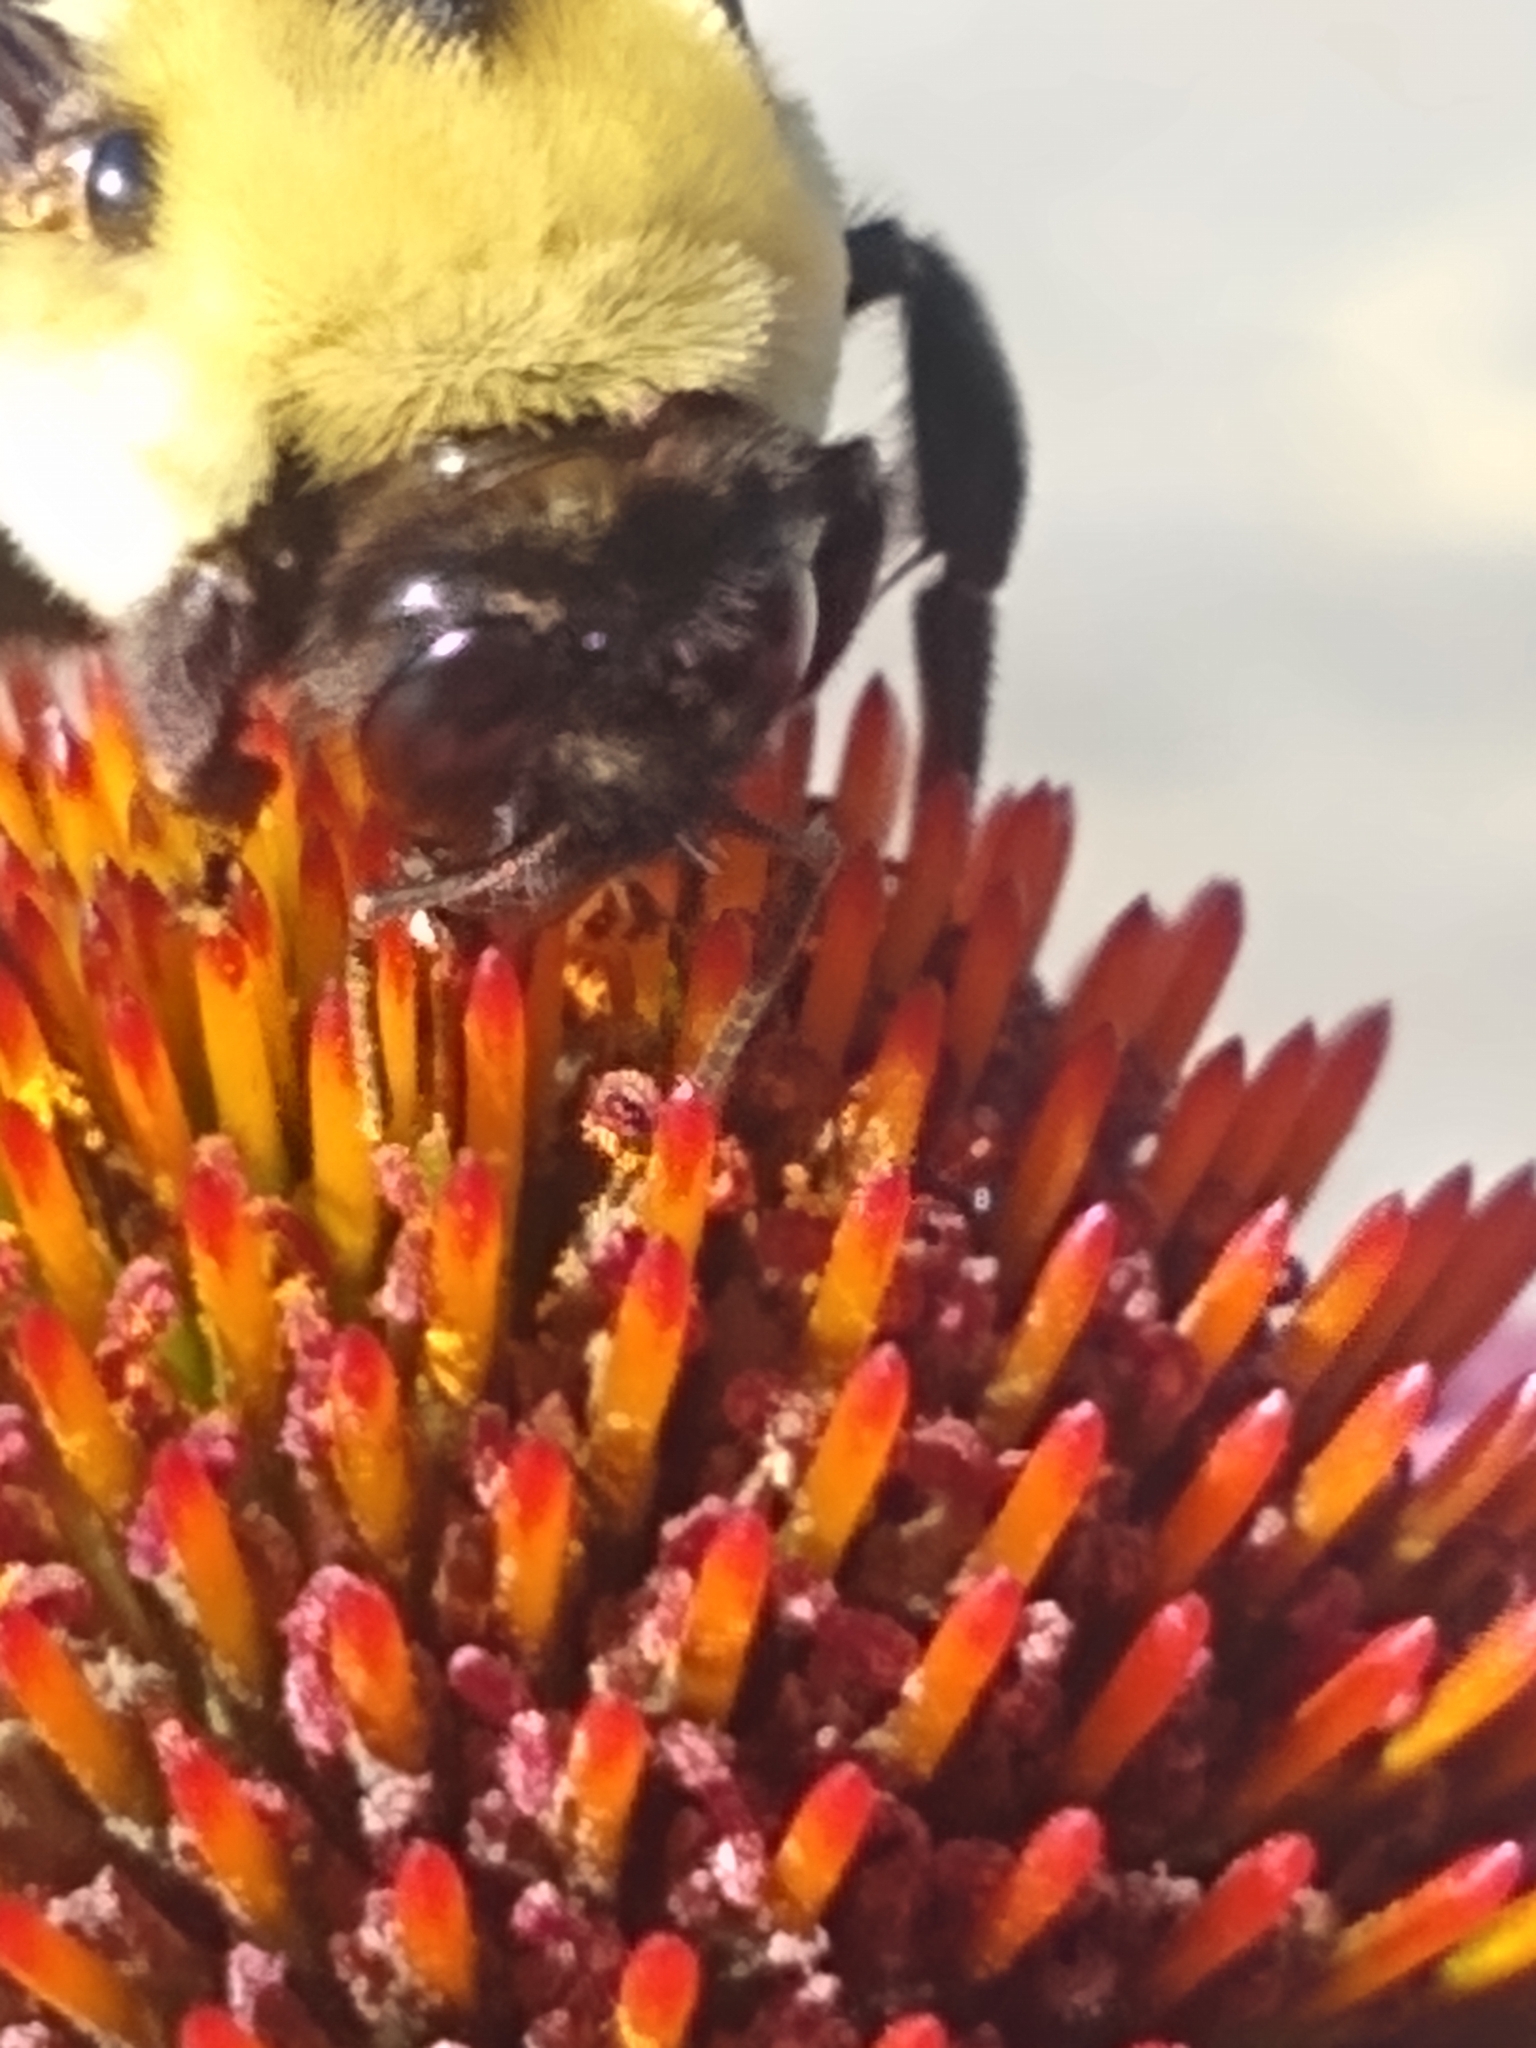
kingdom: Animalia
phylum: Arthropoda
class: Insecta
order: Hymenoptera
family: Apidae
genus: Bombus
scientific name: Bombus griseocollis
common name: Brown-belted bumble bee
